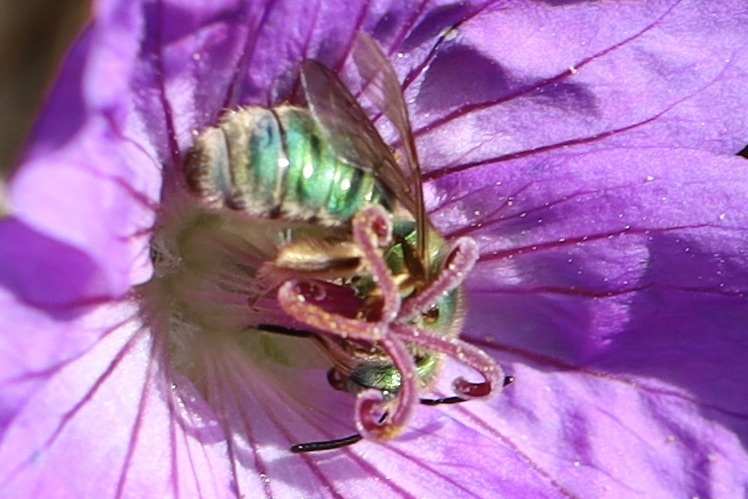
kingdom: Animalia
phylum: Arthropoda
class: Insecta
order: Hymenoptera
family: Halictidae
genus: Agapostemon
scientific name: Agapostemon texanus
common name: Texas striped sweat bee
